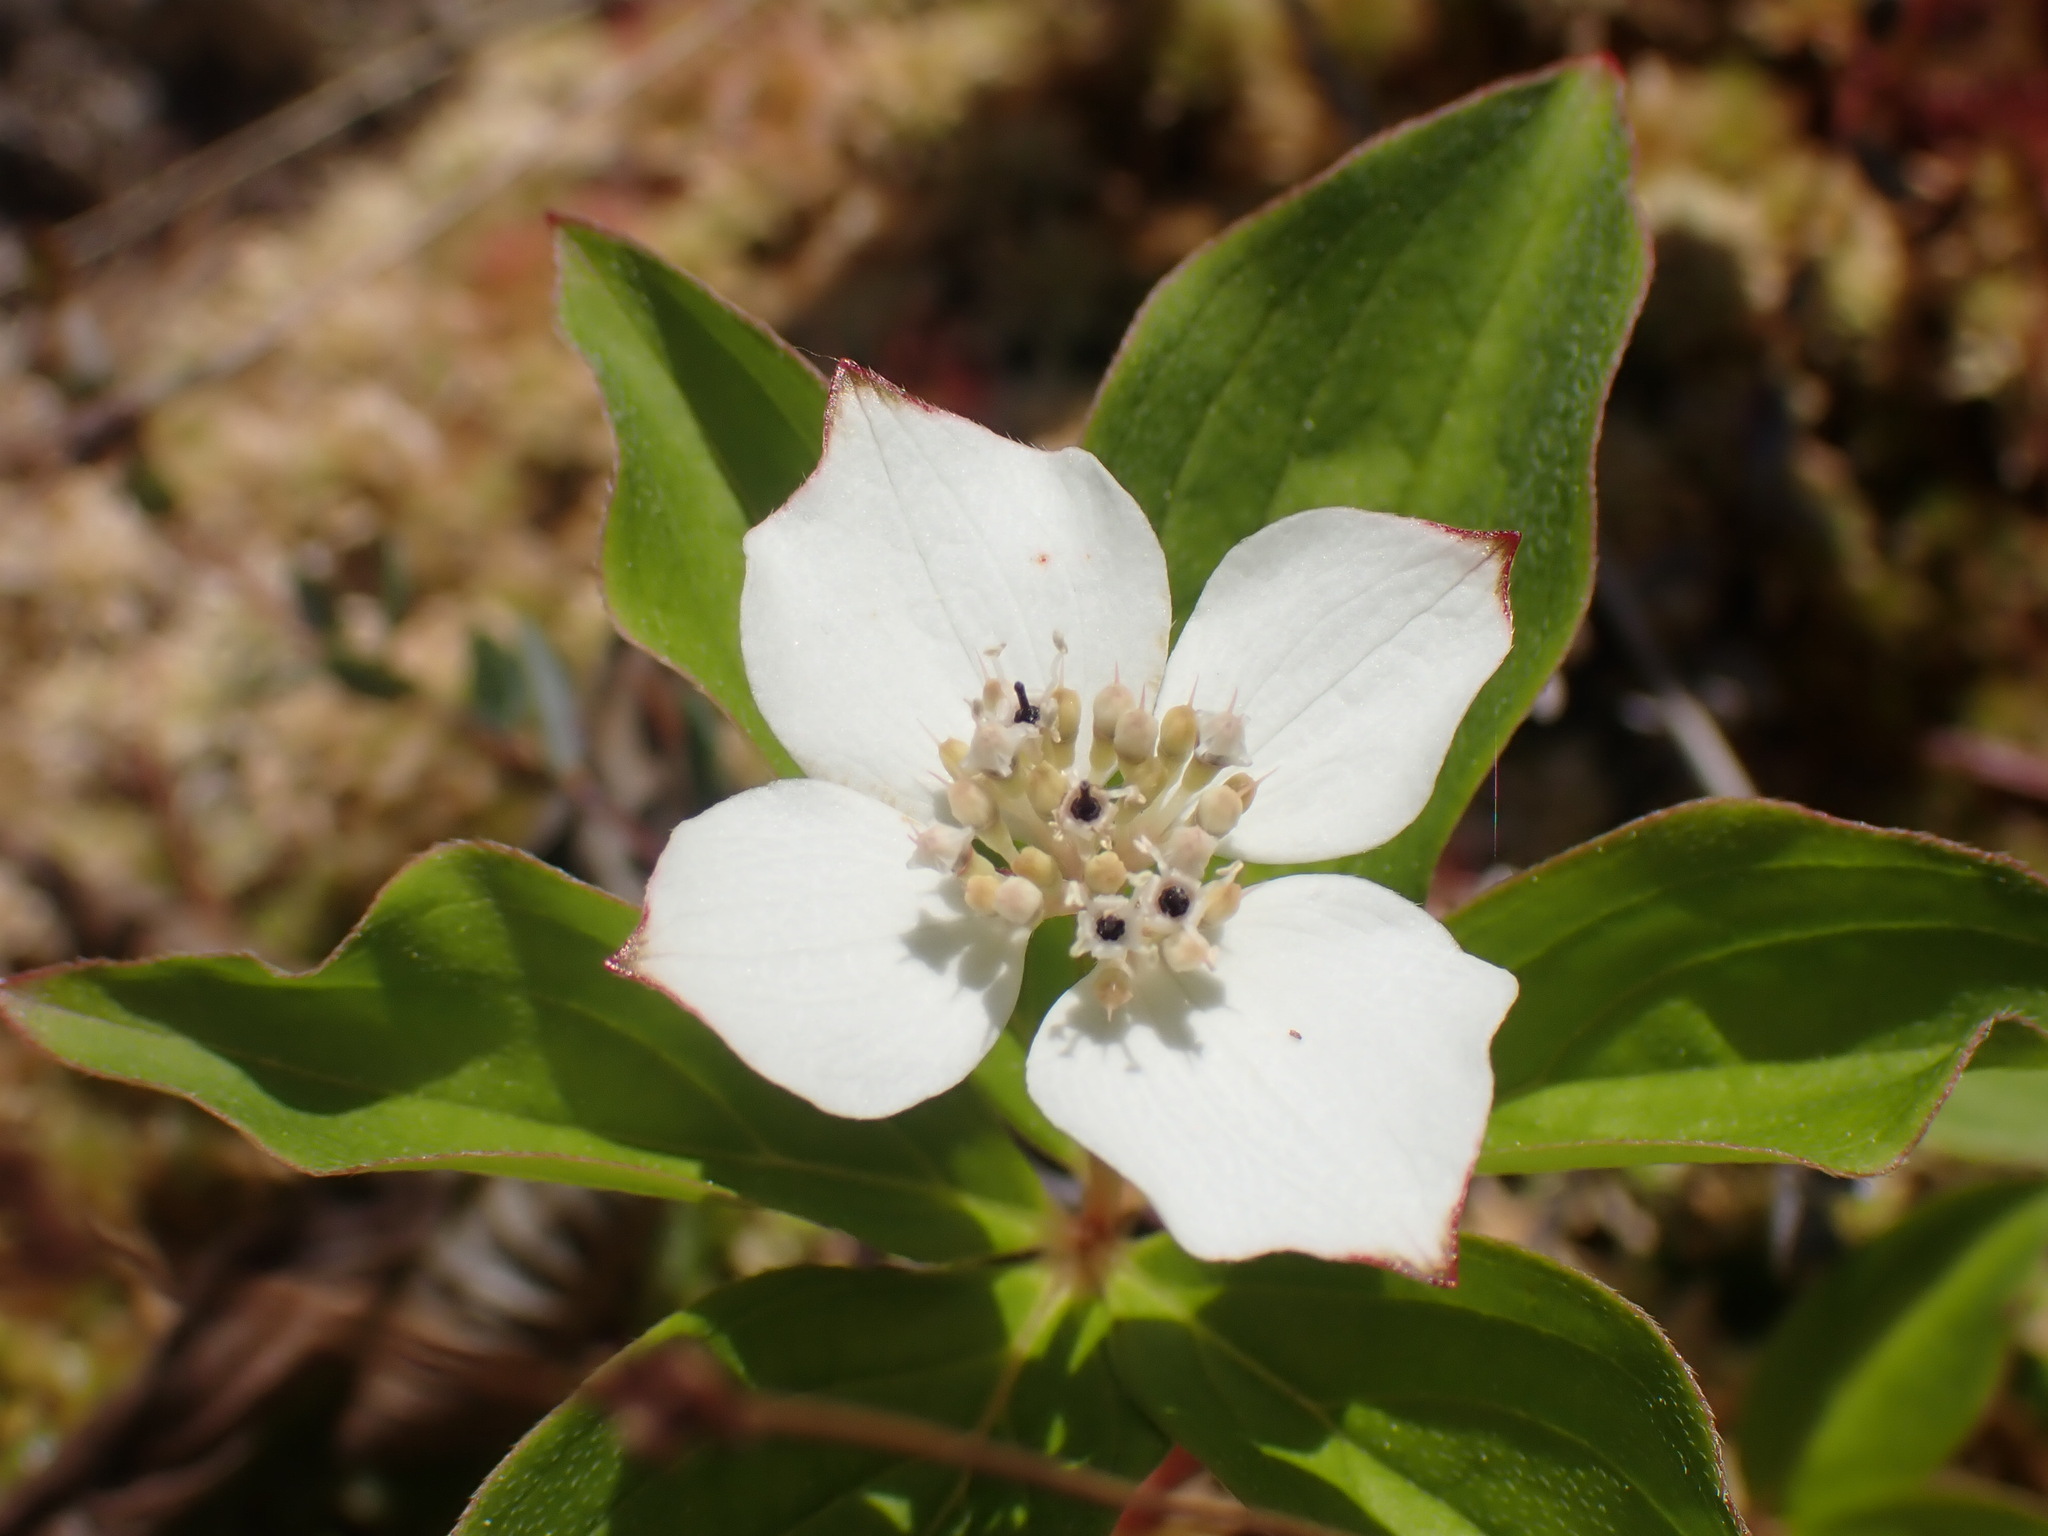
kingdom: Plantae
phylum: Tracheophyta
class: Magnoliopsida
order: Cornales
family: Cornaceae
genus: Cornus
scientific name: Cornus canadensis
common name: Creeping dogwood
